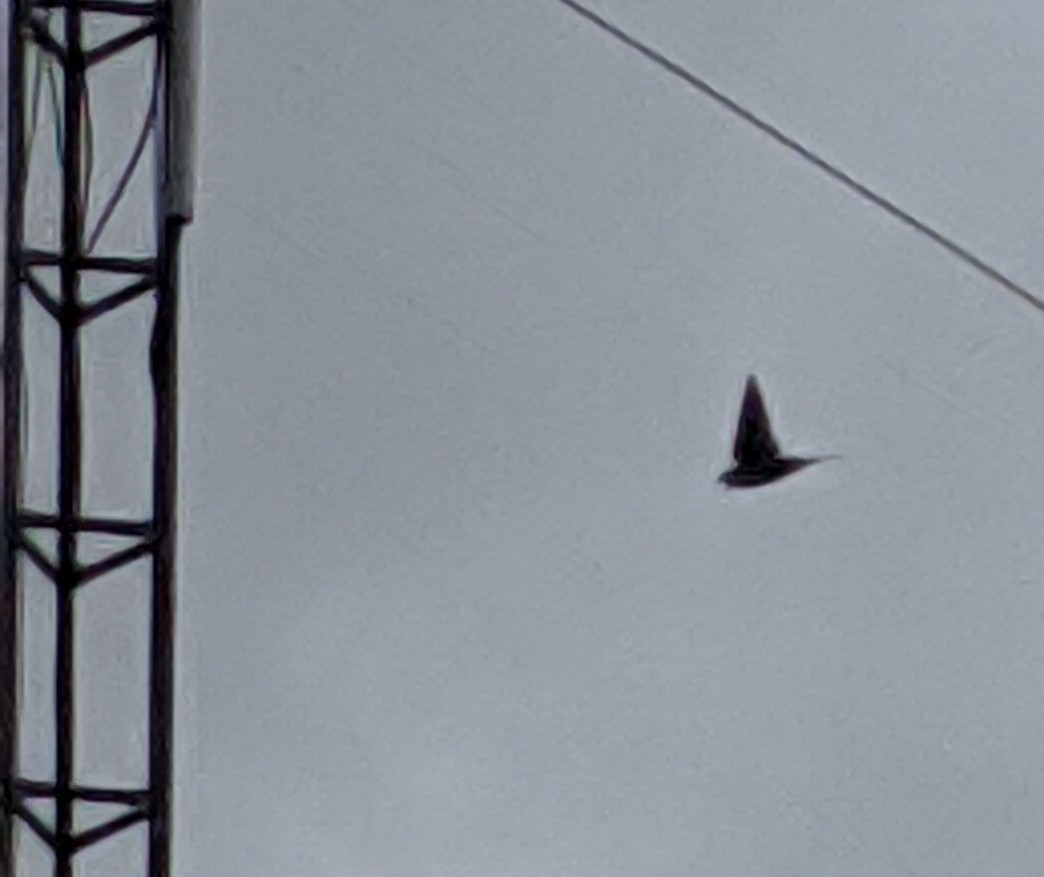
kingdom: Animalia
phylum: Chordata
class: Aves
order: Passeriformes
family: Hirundinidae
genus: Hirundo
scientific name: Hirundo rustica
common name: Barn swallow
